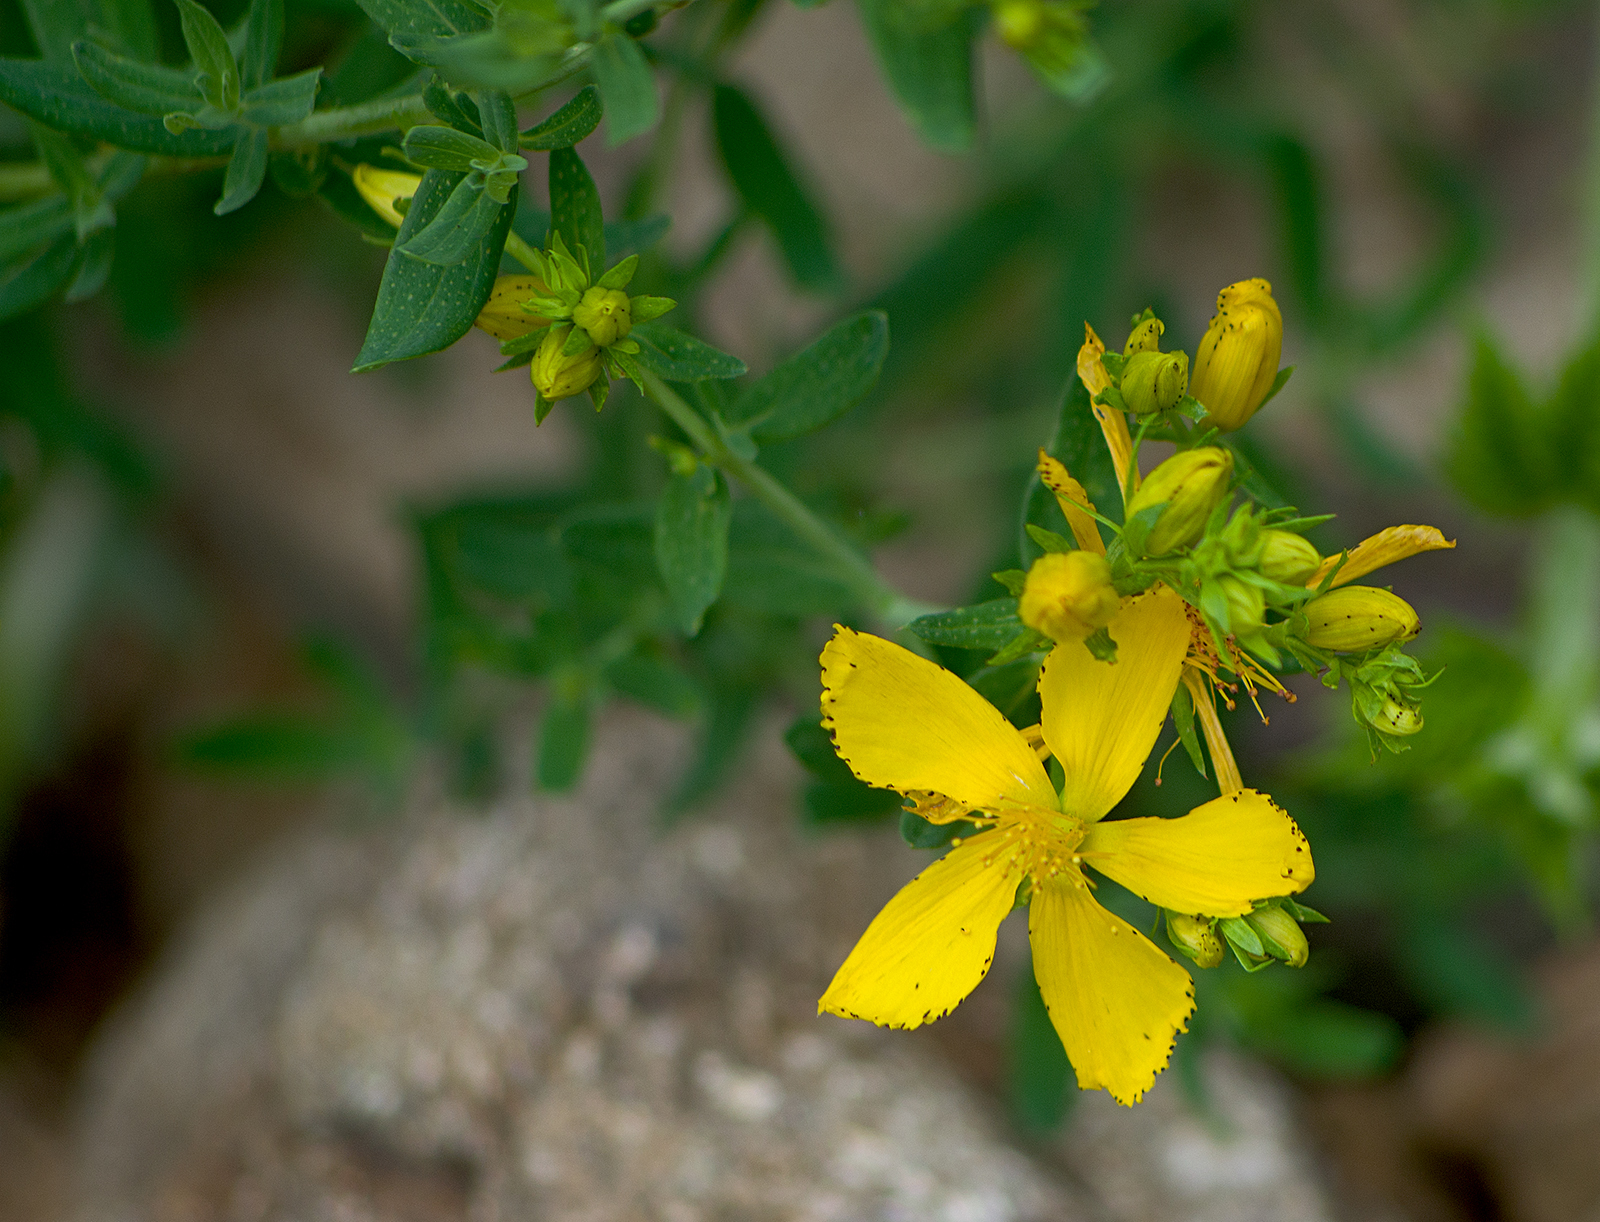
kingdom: Plantae
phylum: Tracheophyta
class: Magnoliopsida
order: Malpighiales
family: Hypericaceae
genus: Hypericum
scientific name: Hypericum perforatum
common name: Common st. johnswort
